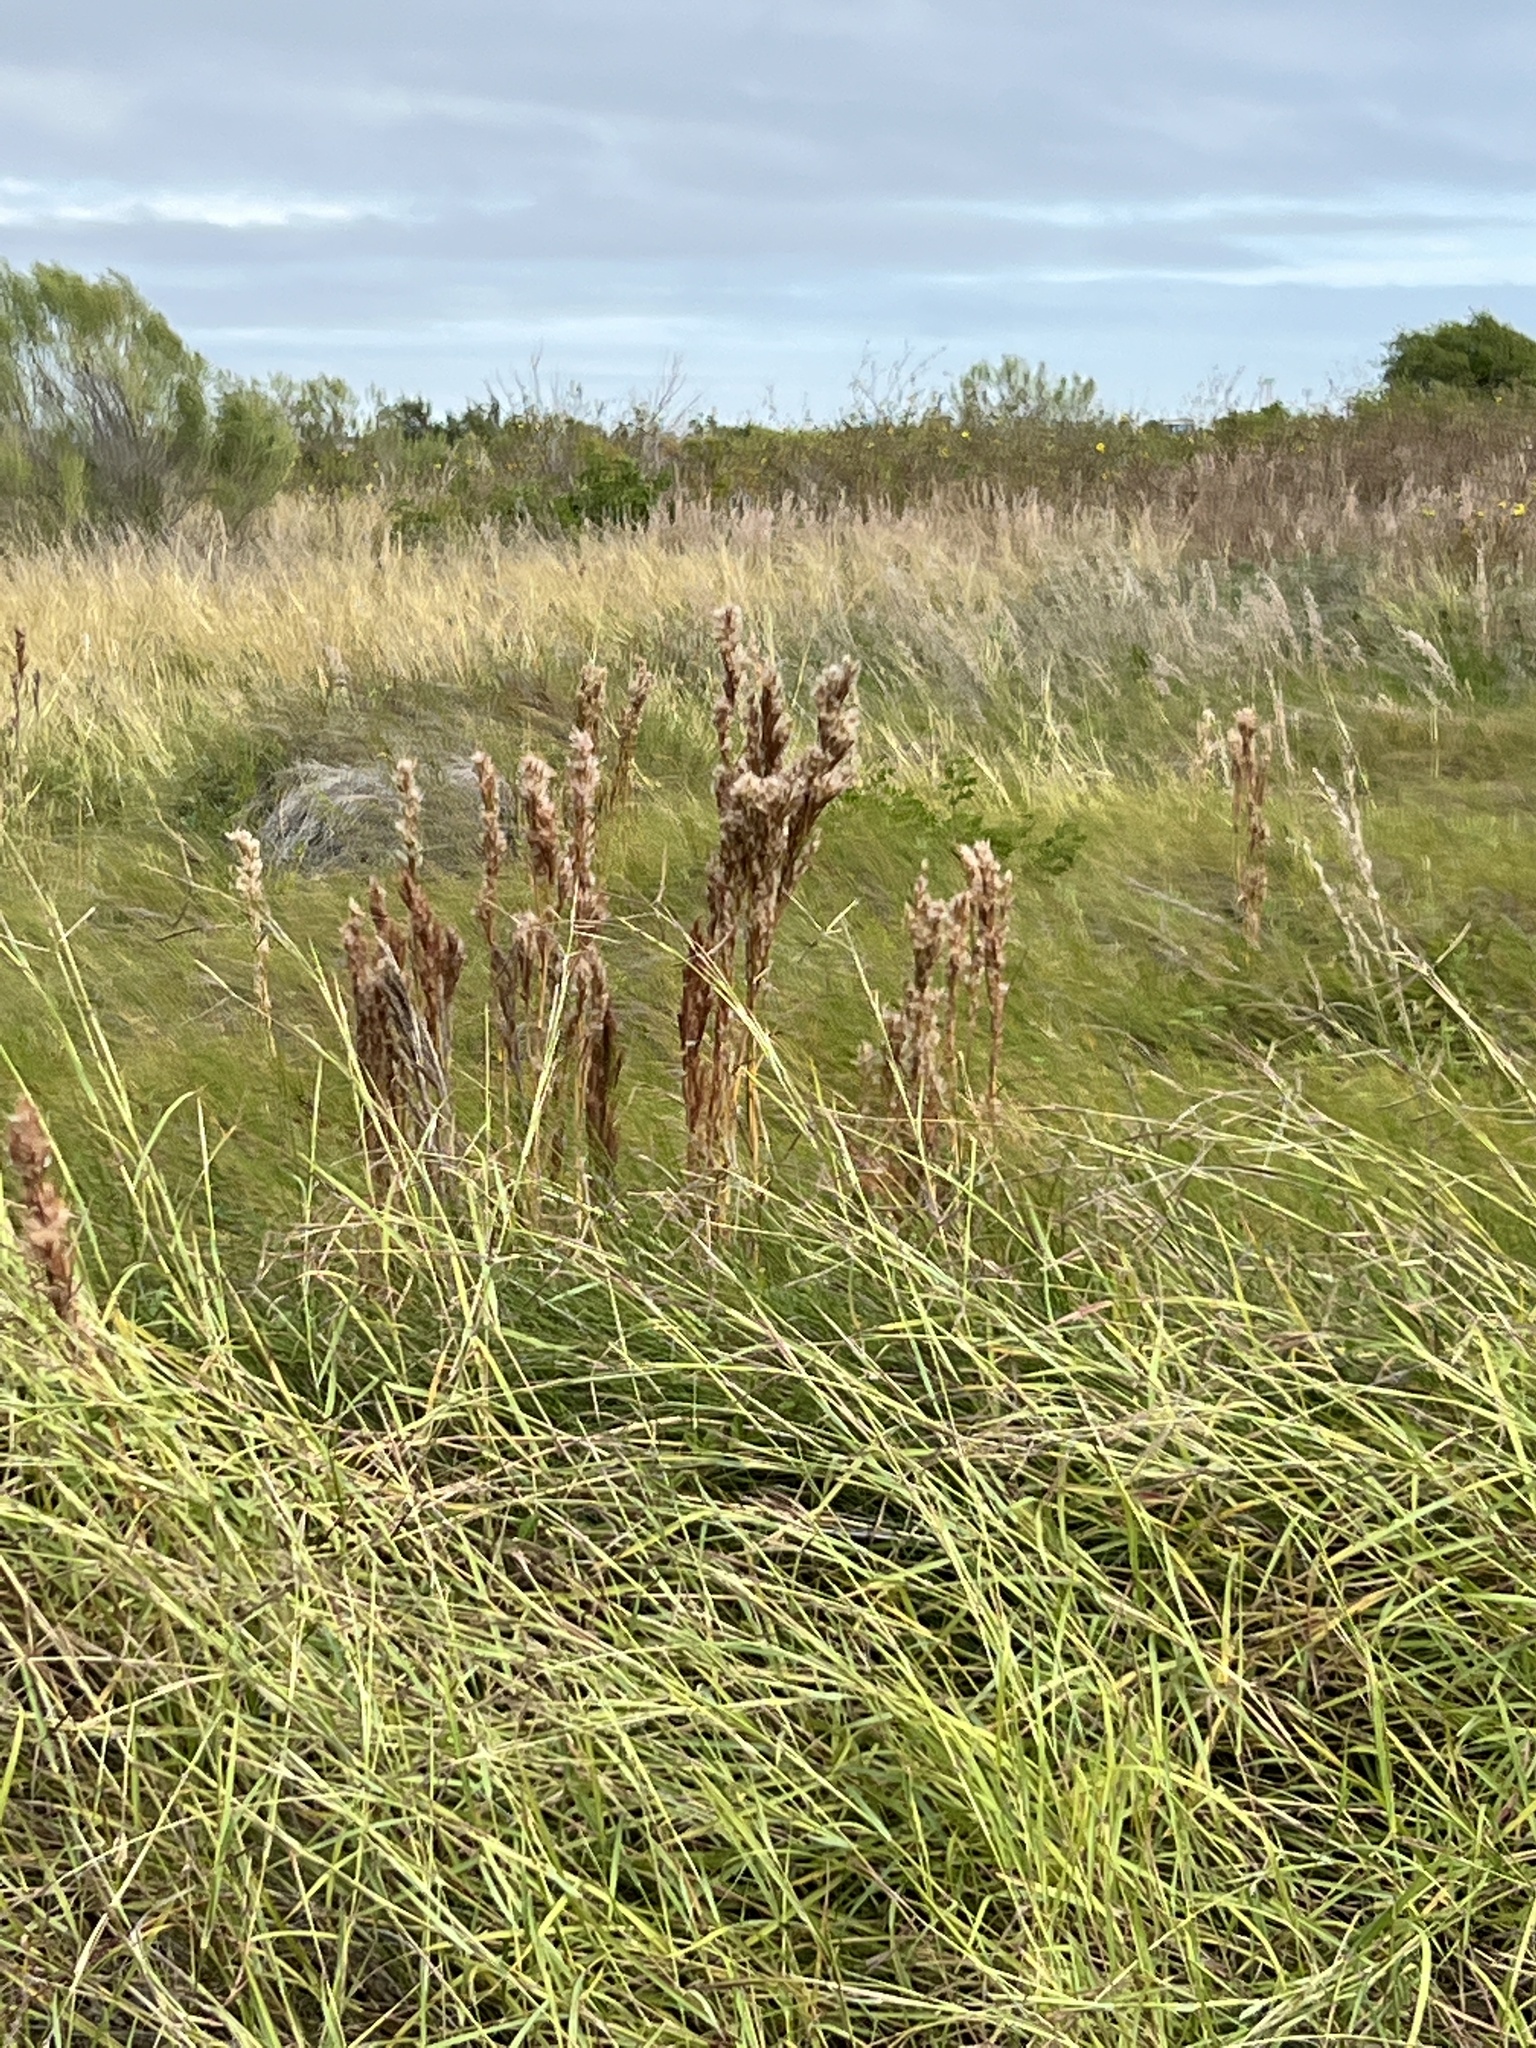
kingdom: Plantae
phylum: Tracheophyta
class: Liliopsida
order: Poales
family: Poaceae
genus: Andropogon
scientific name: Andropogon tenuispatheus
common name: Bushy bluestem
